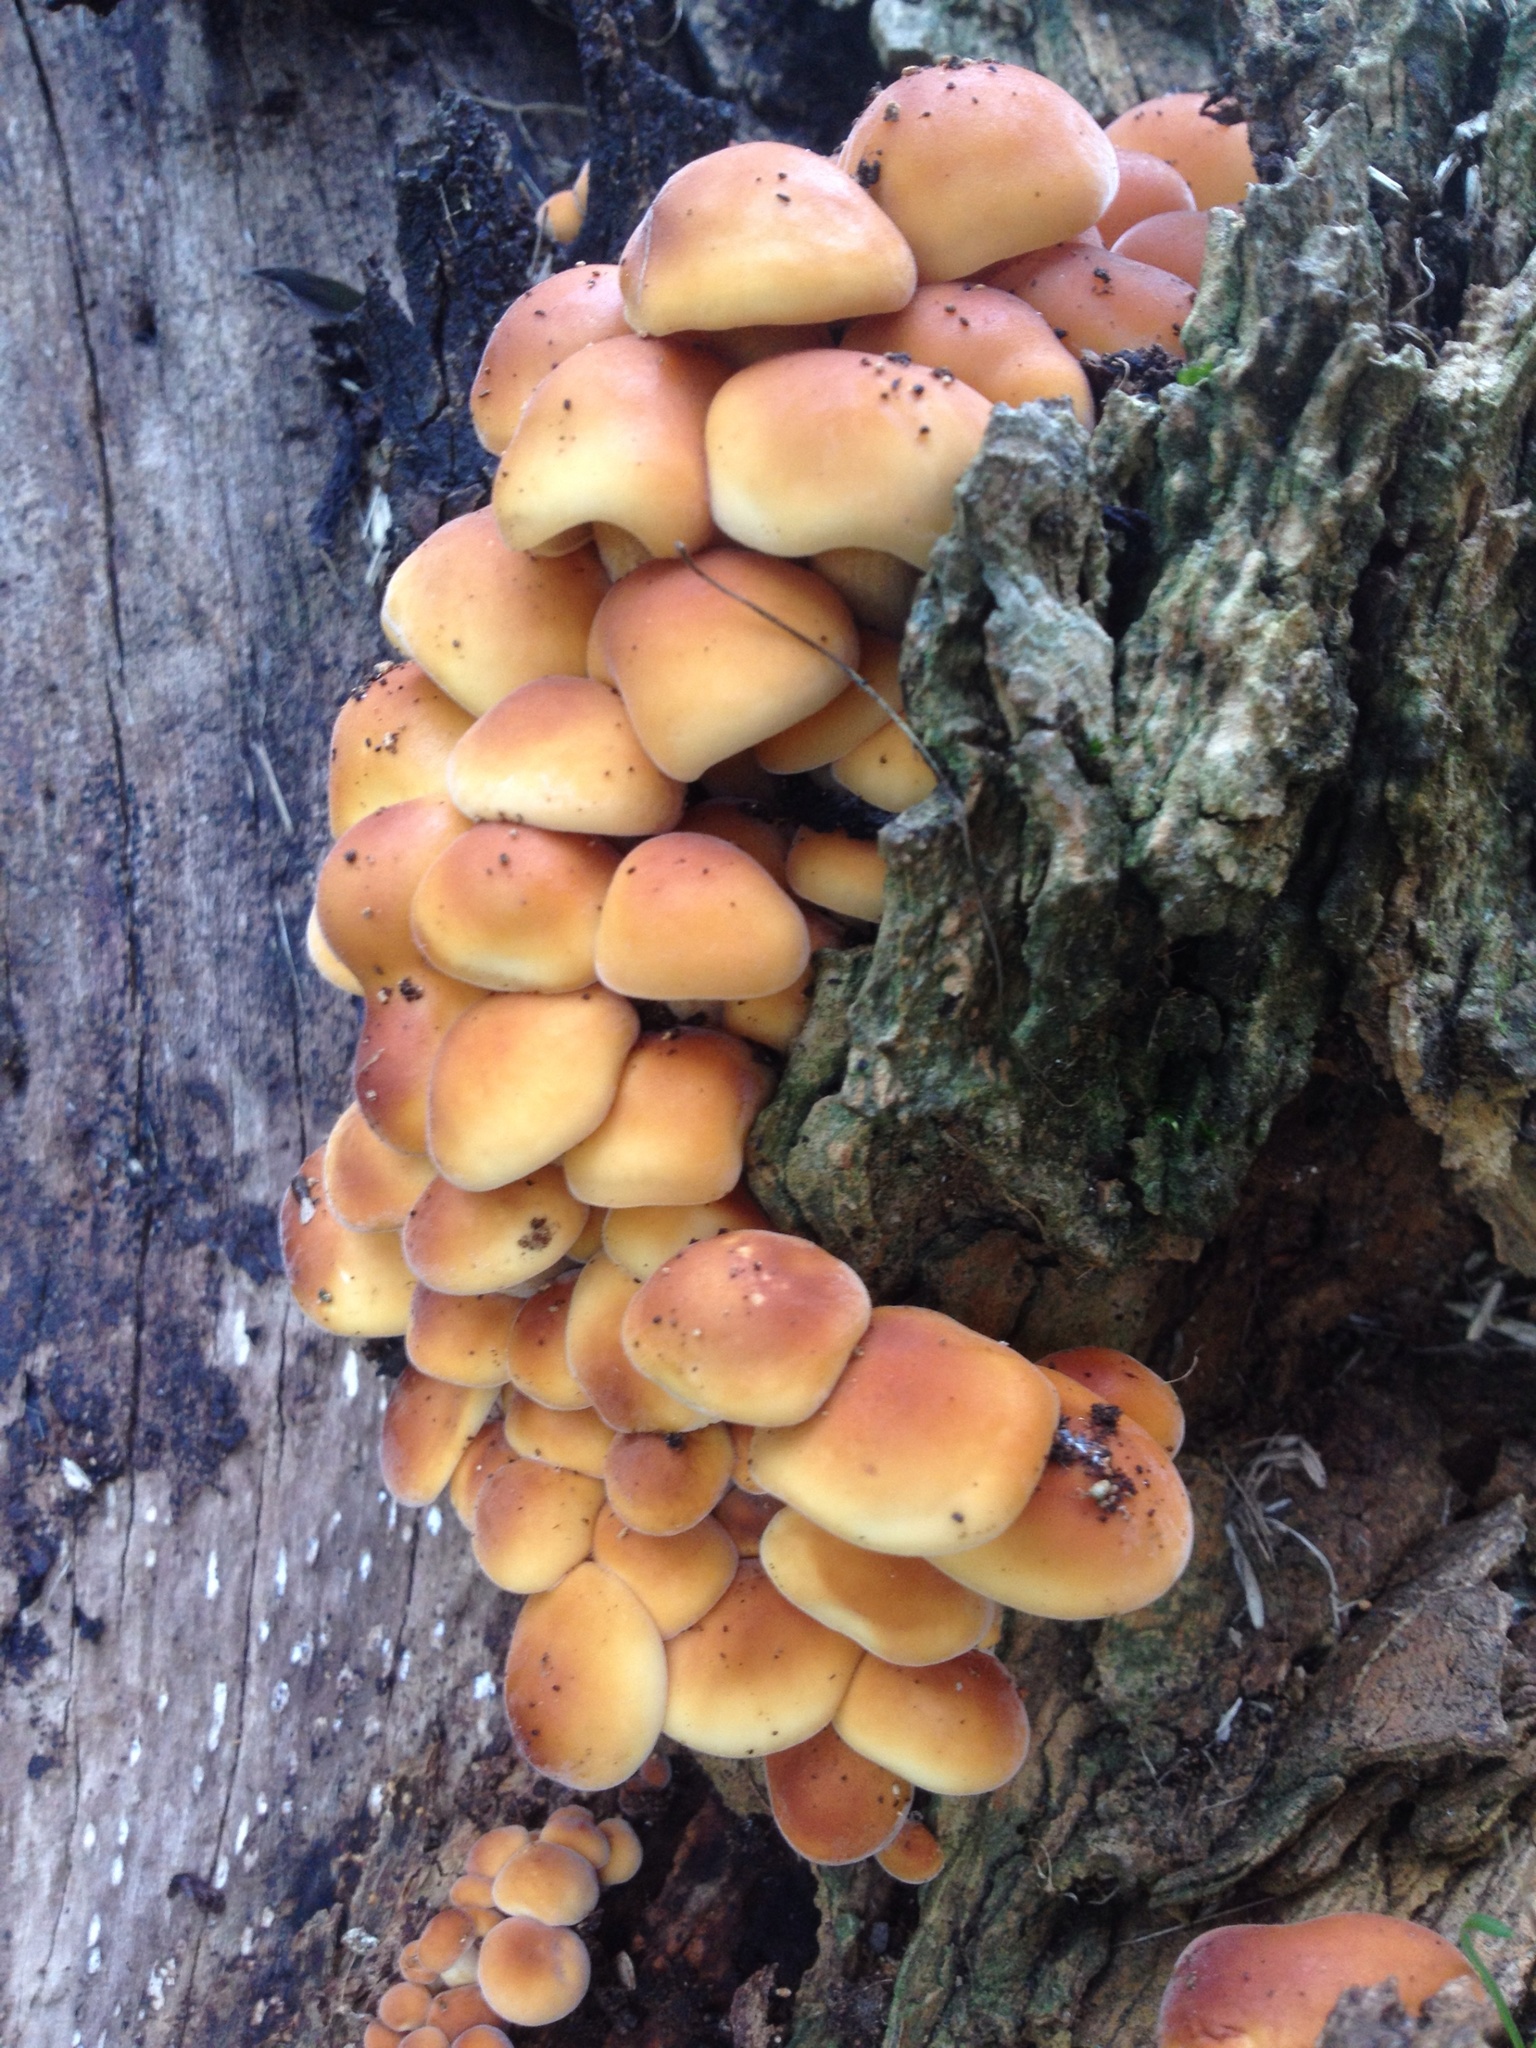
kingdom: Fungi
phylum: Basidiomycota
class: Agaricomycetes
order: Agaricales
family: Physalacriaceae
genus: Flammulina
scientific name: Flammulina velutipes
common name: Velvet shank
